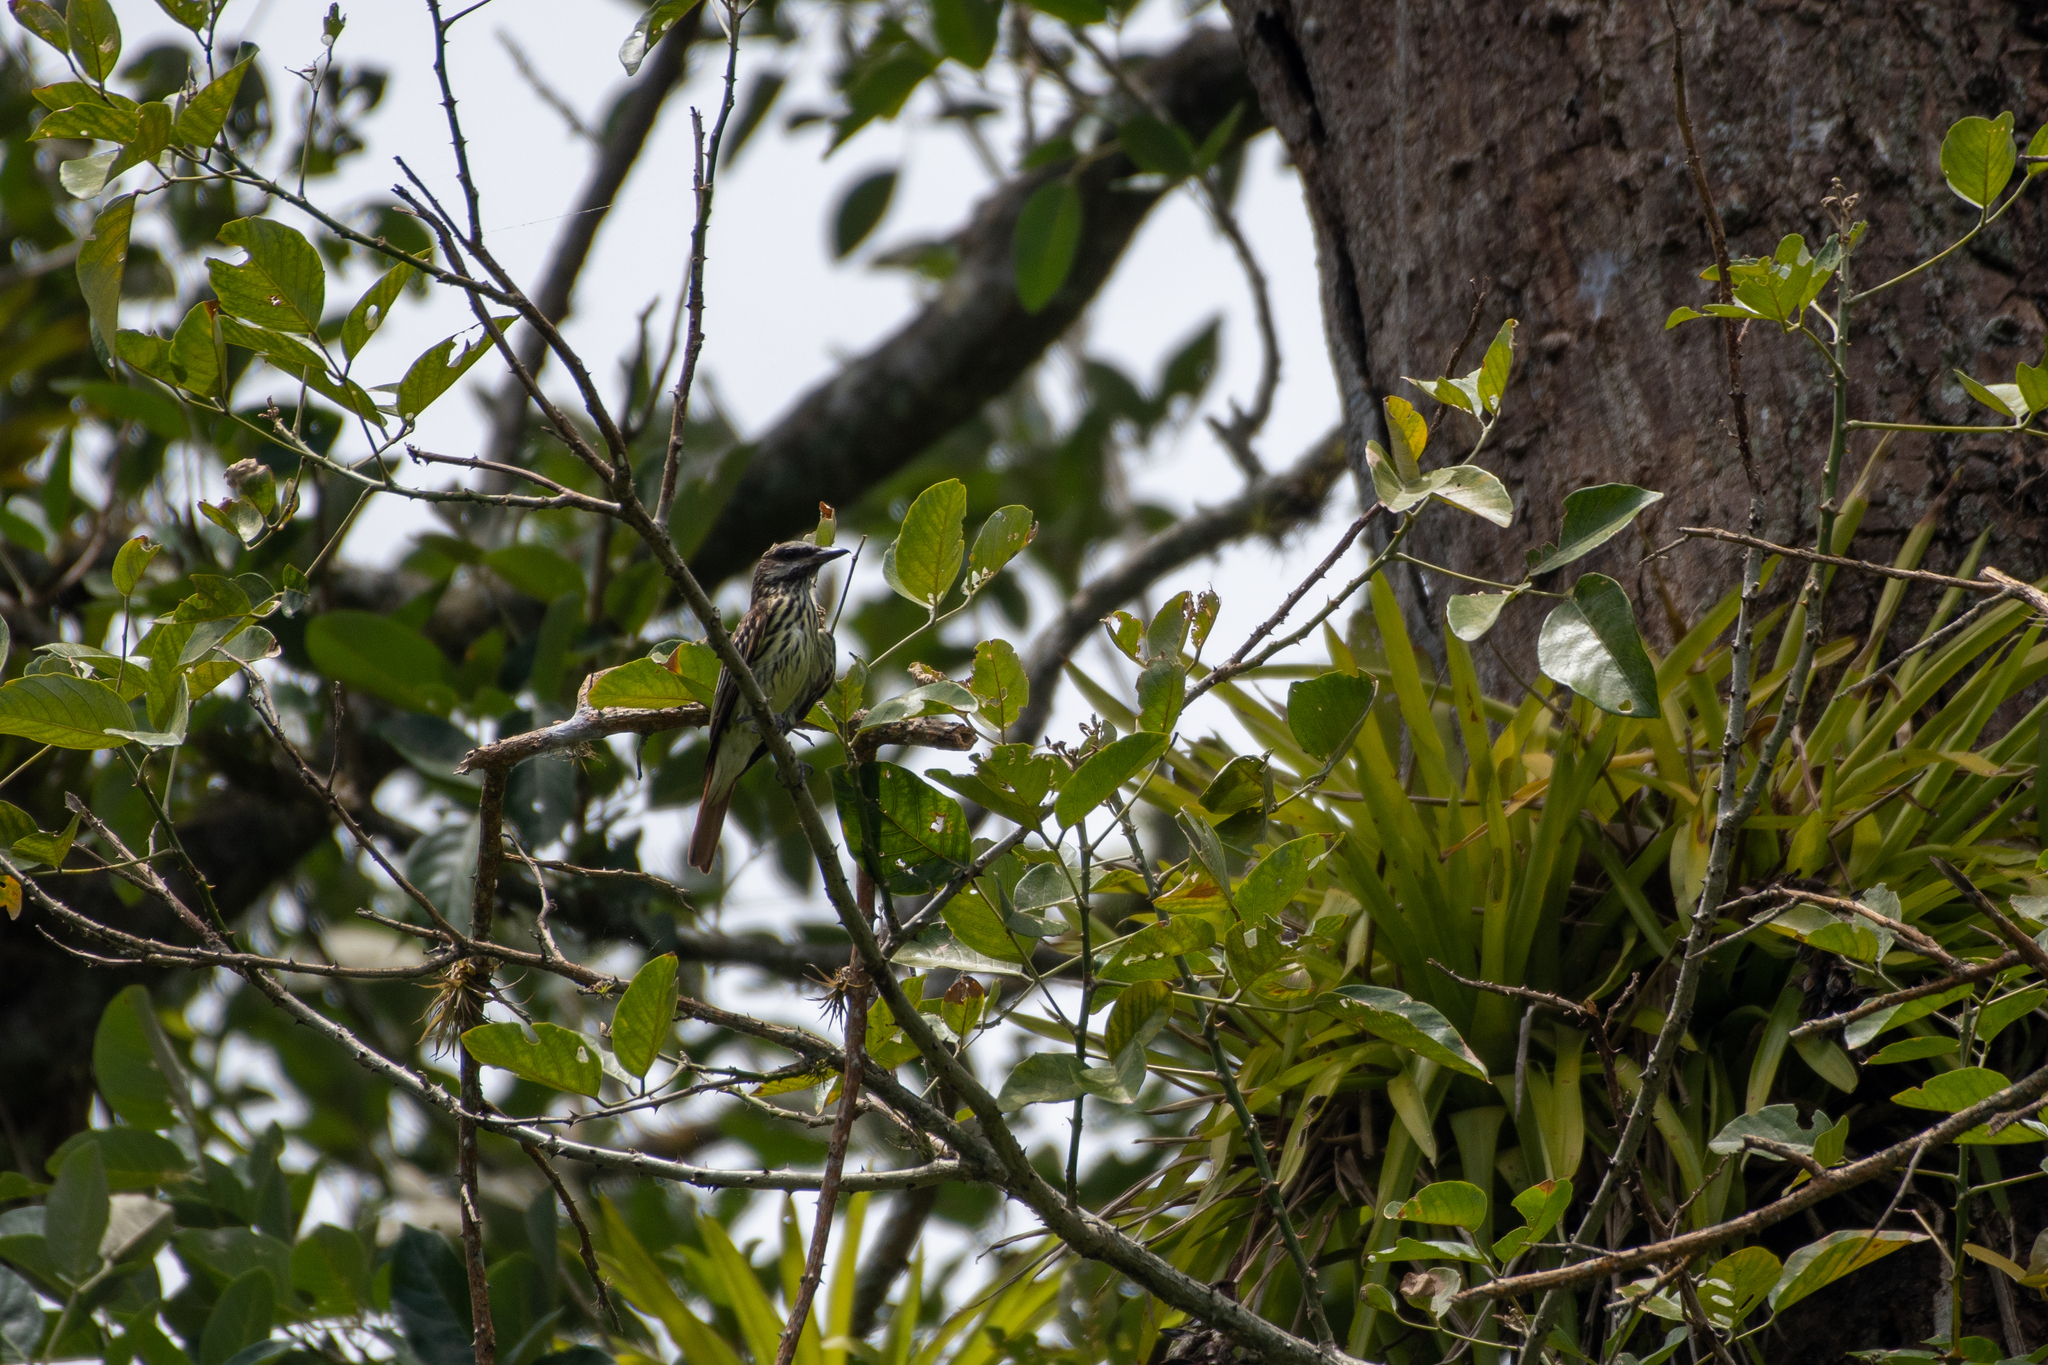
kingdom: Animalia
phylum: Chordata
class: Aves
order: Passeriformes
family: Tyrannidae
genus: Myiodynastes
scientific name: Myiodynastes luteiventris
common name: Sulphur-bellied flycatcher
